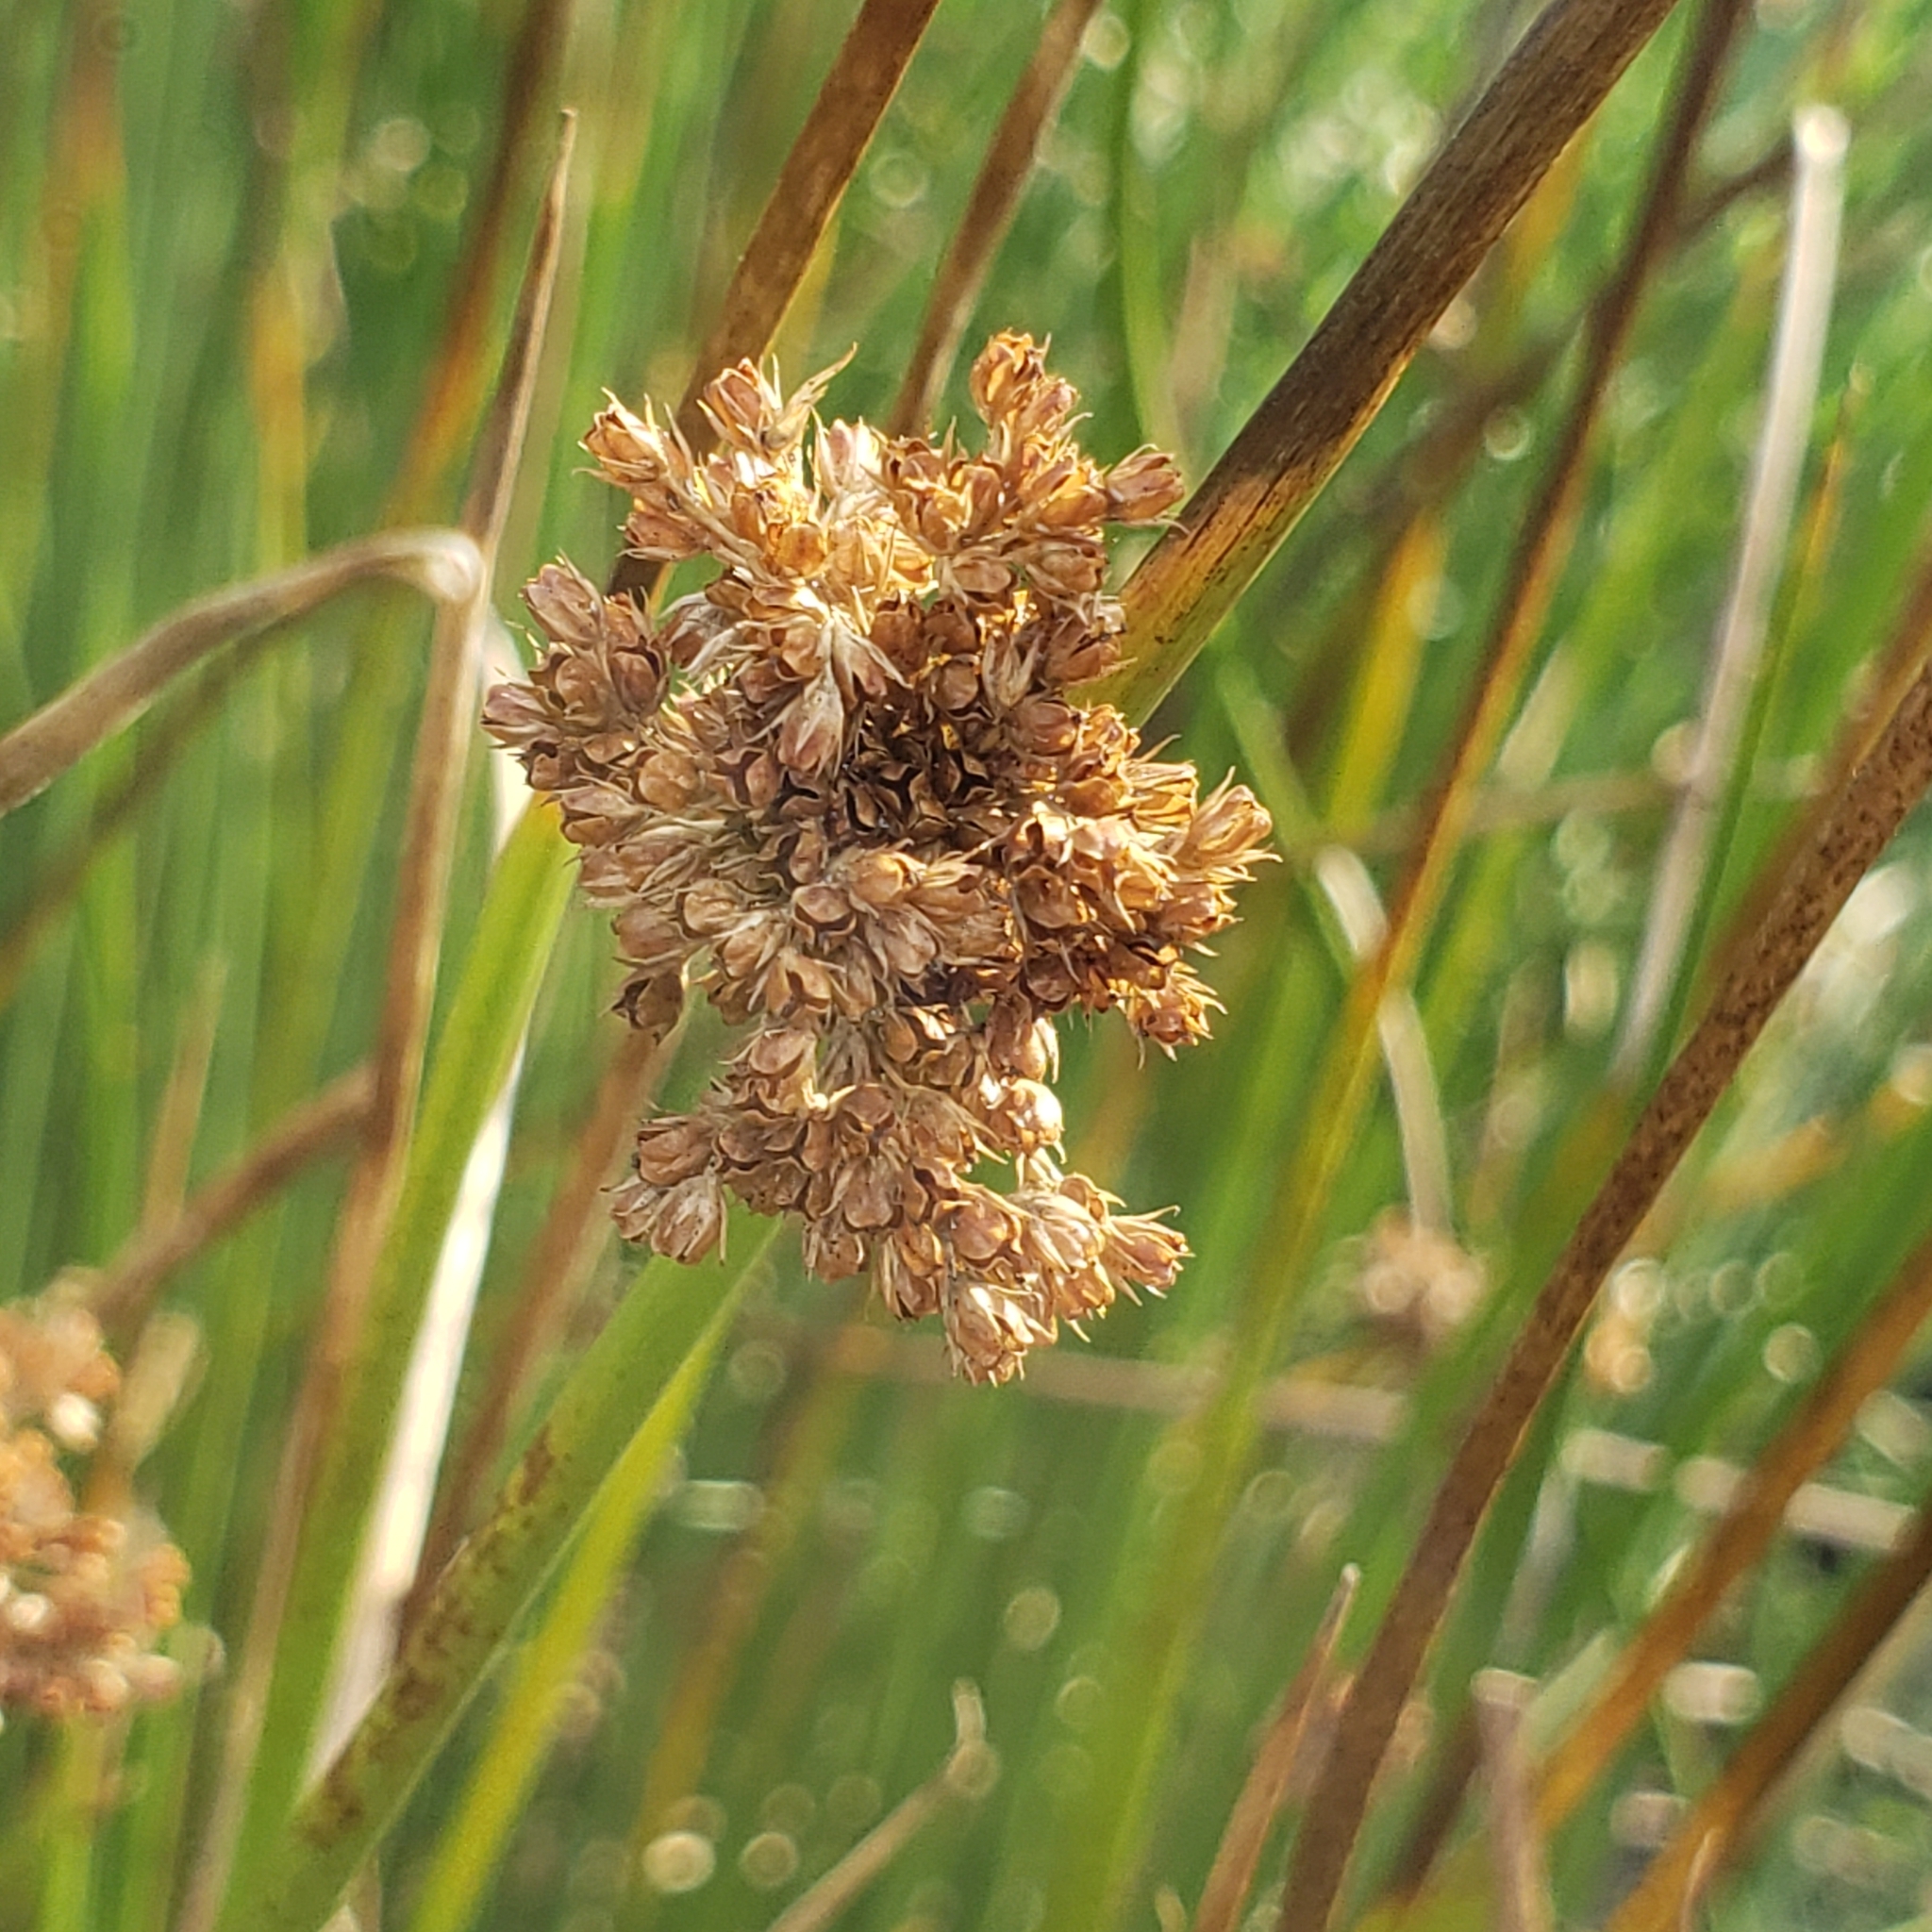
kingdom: Plantae
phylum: Tracheophyta
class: Liliopsida
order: Poales
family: Juncaceae
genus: Juncus
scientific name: Juncus effusus
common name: Soft rush
